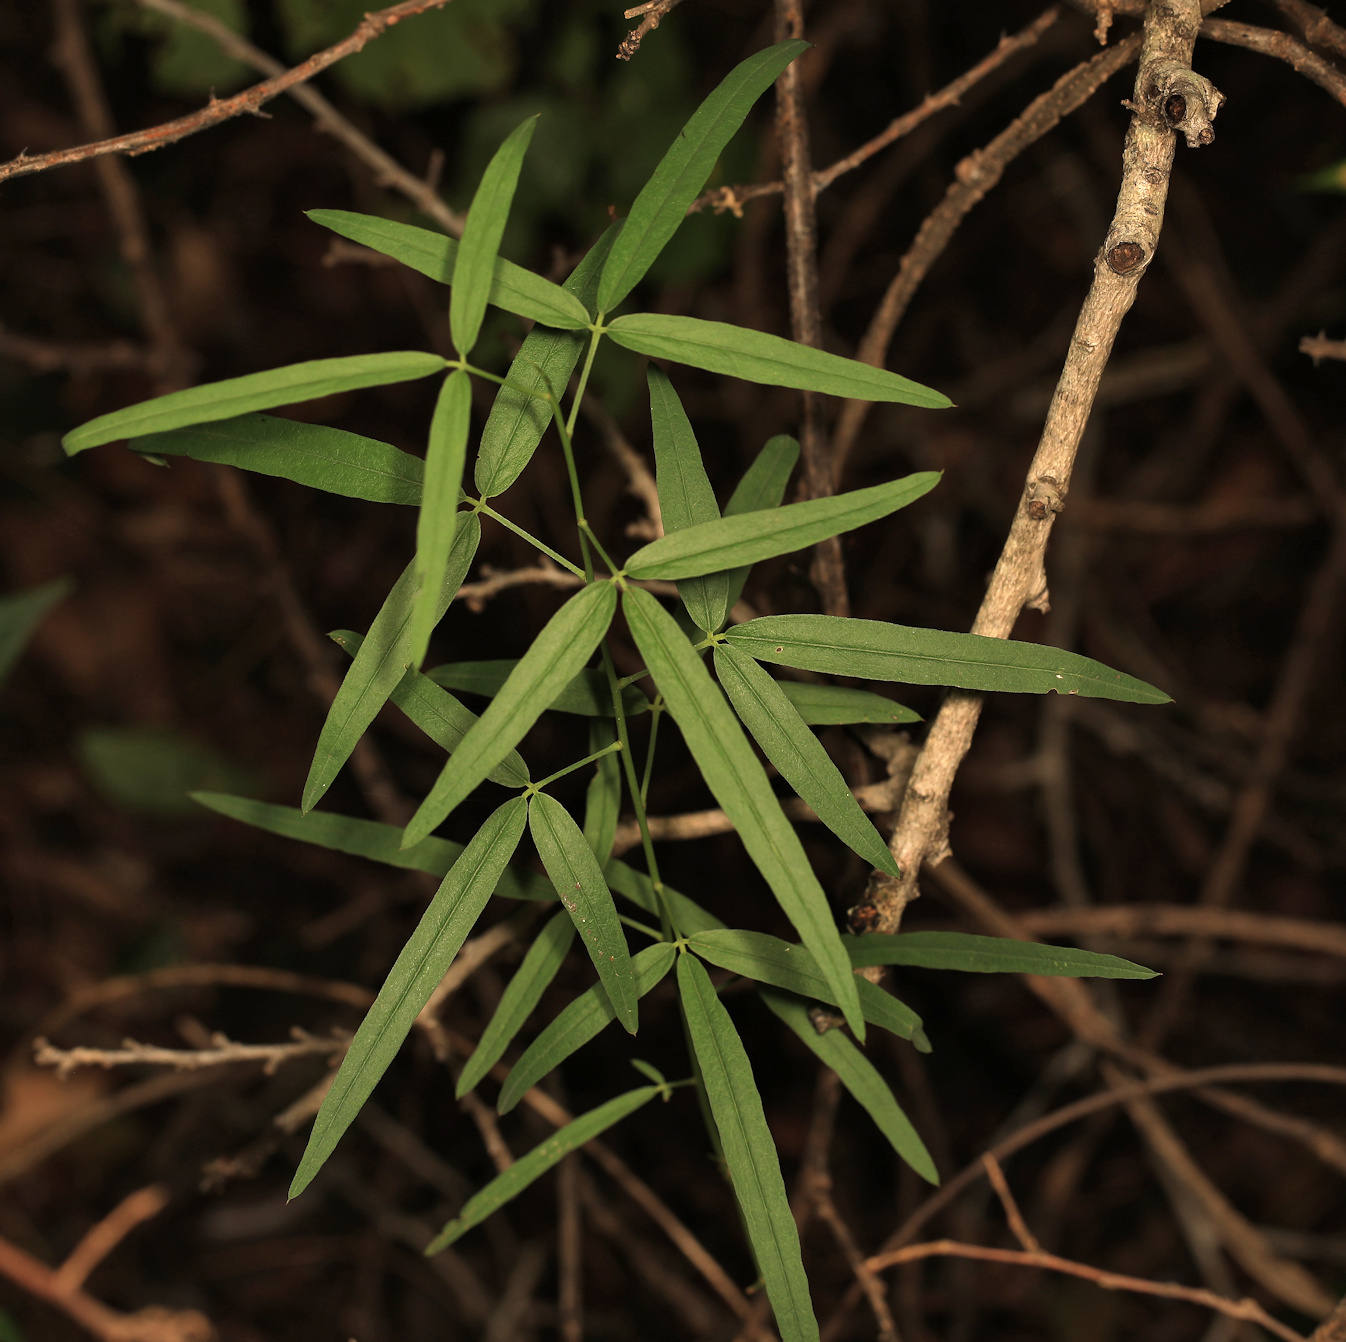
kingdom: Plantae
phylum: Tracheophyta
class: Magnoliopsida
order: Brassicales
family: Capparaceae
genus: Maerua
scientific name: Maerua juncea
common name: Rough-skinned bush cherry
